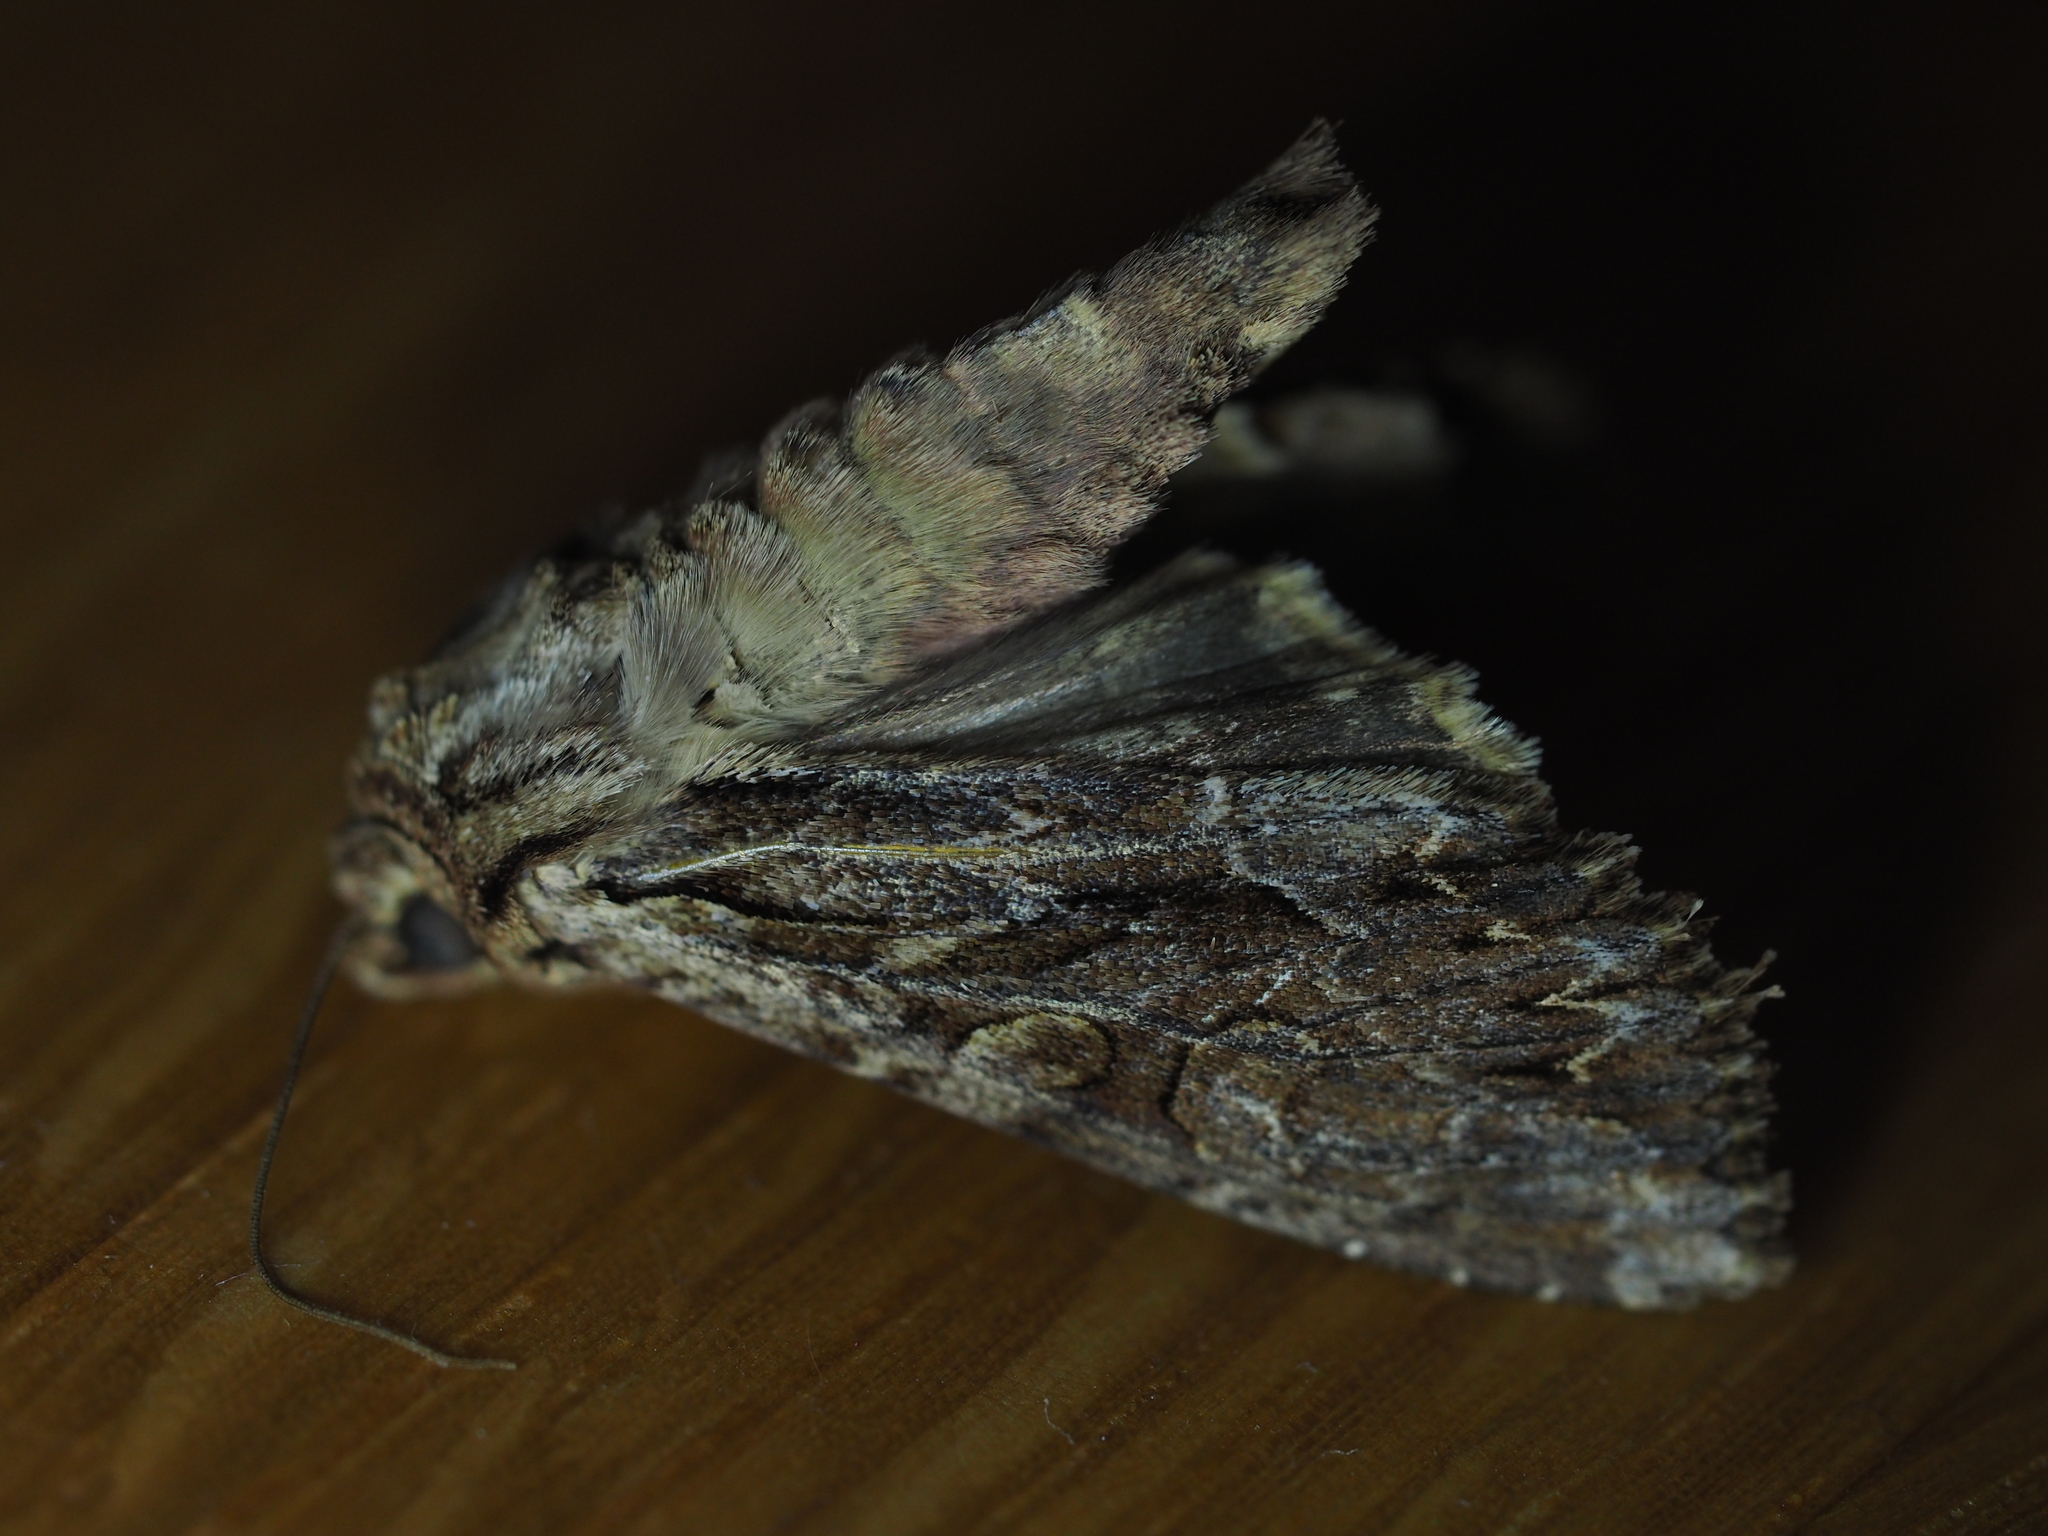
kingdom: Animalia
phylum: Arthropoda
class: Insecta
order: Lepidoptera
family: Noctuidae
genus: Apamea
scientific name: Apamea monoglypha
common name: Dark arches
